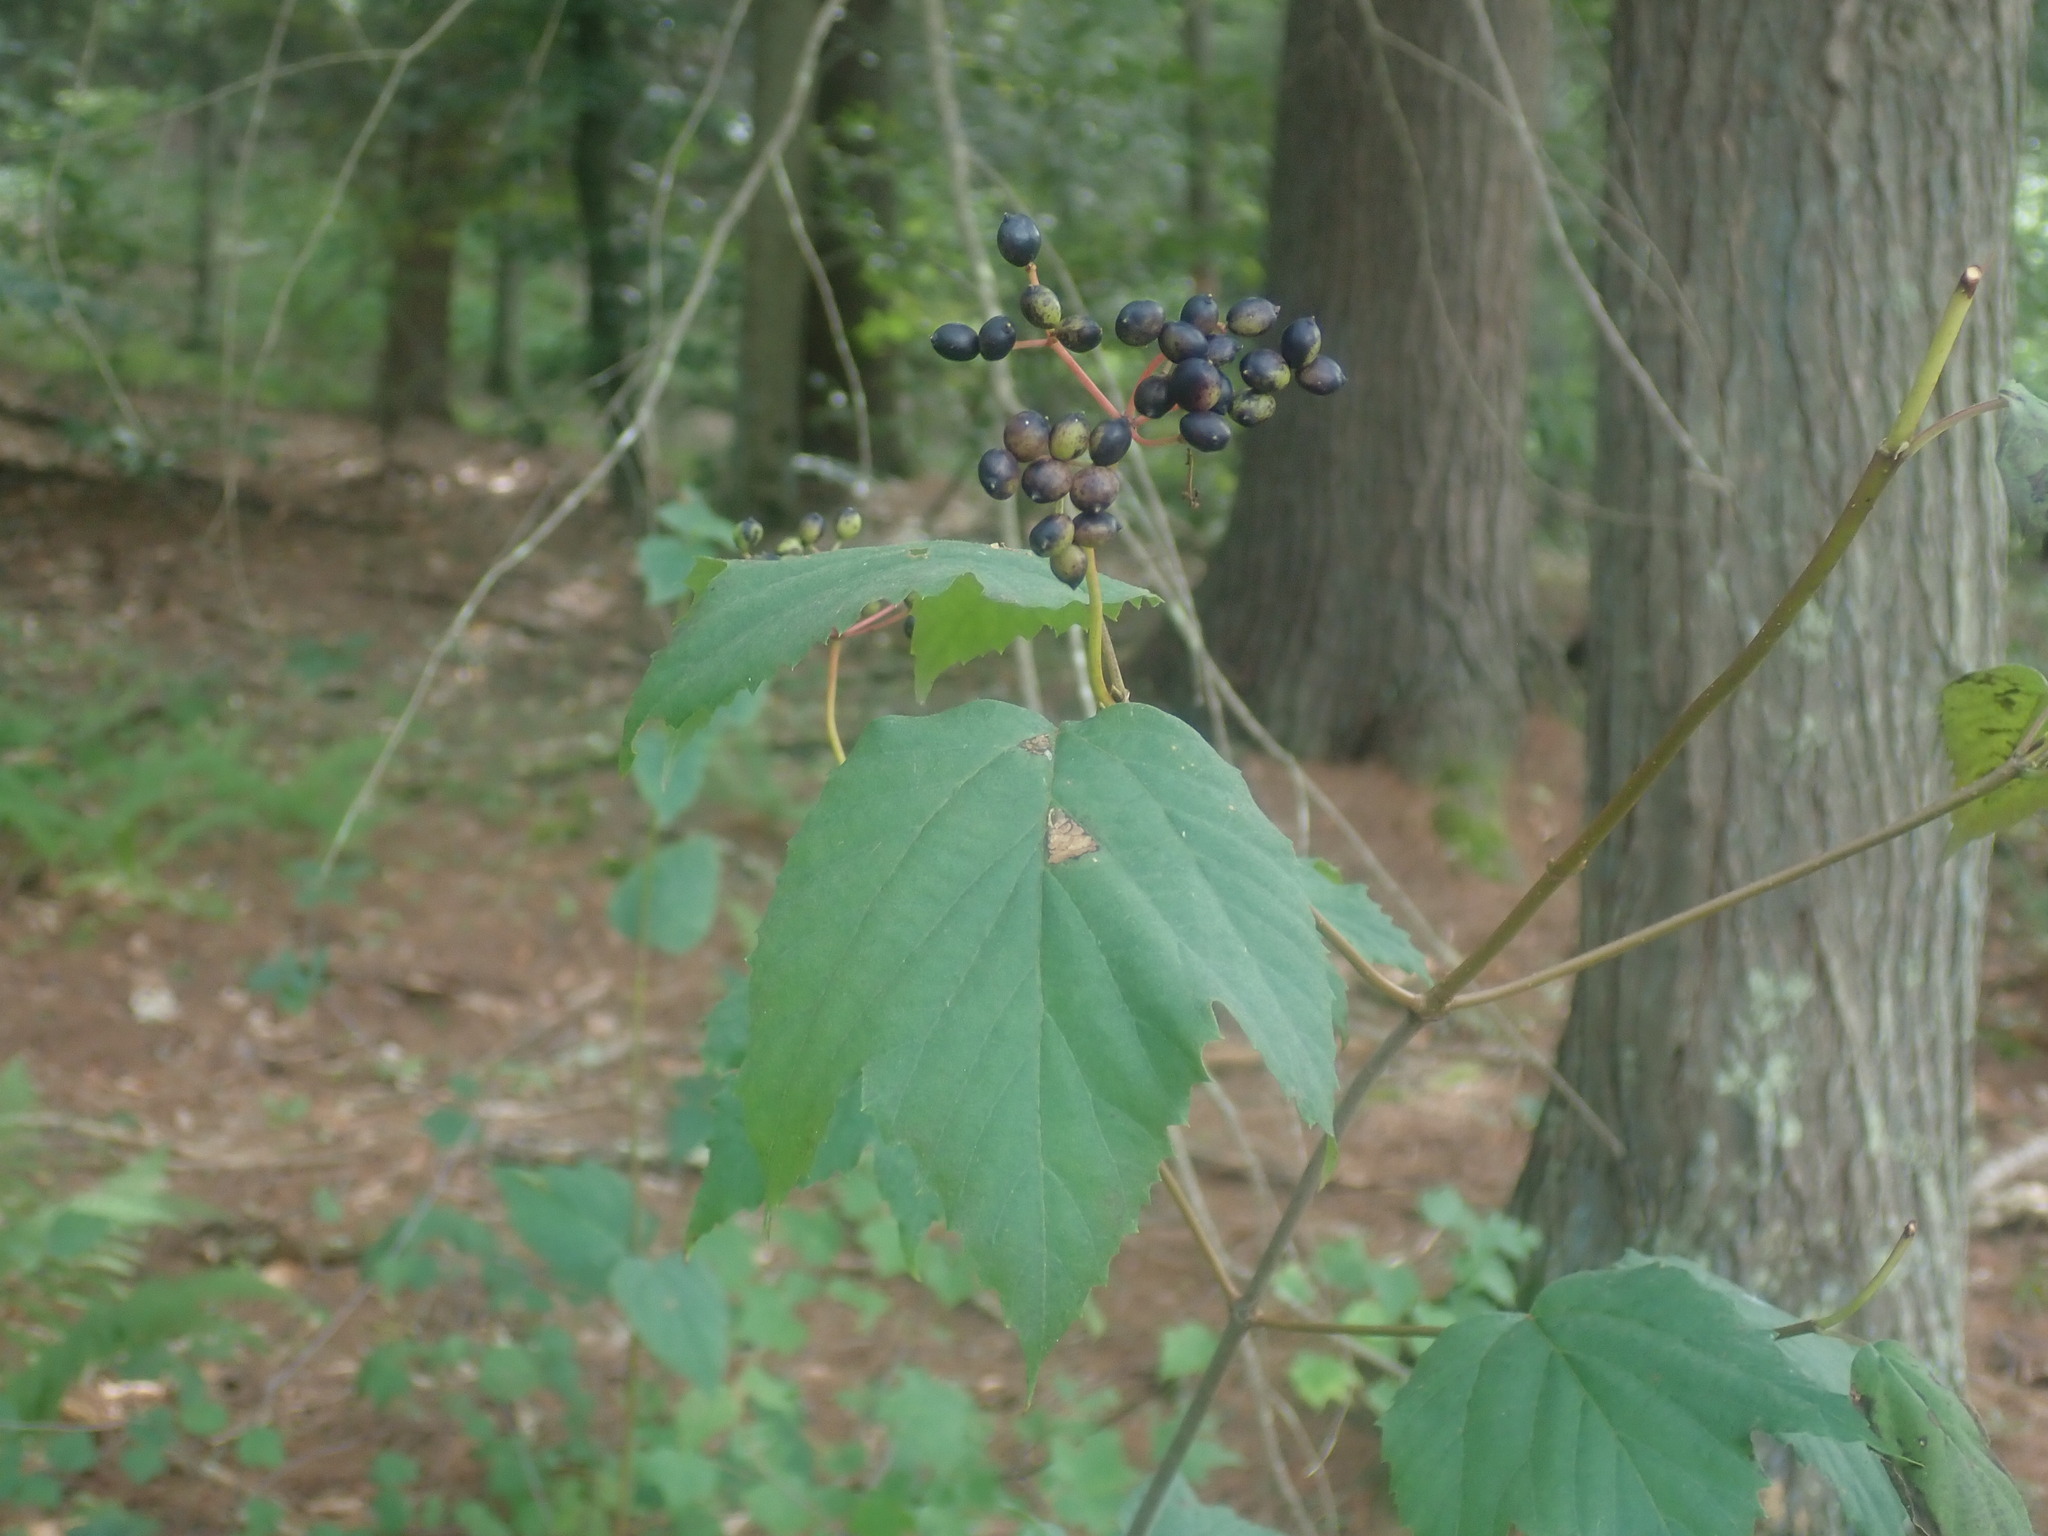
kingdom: Plantae
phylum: Tracheophyta
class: Magnoliopsida
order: Dipsacales
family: Viburnaceae
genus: Viburnum
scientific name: Viburnum acerifolium
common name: Dockmackie
